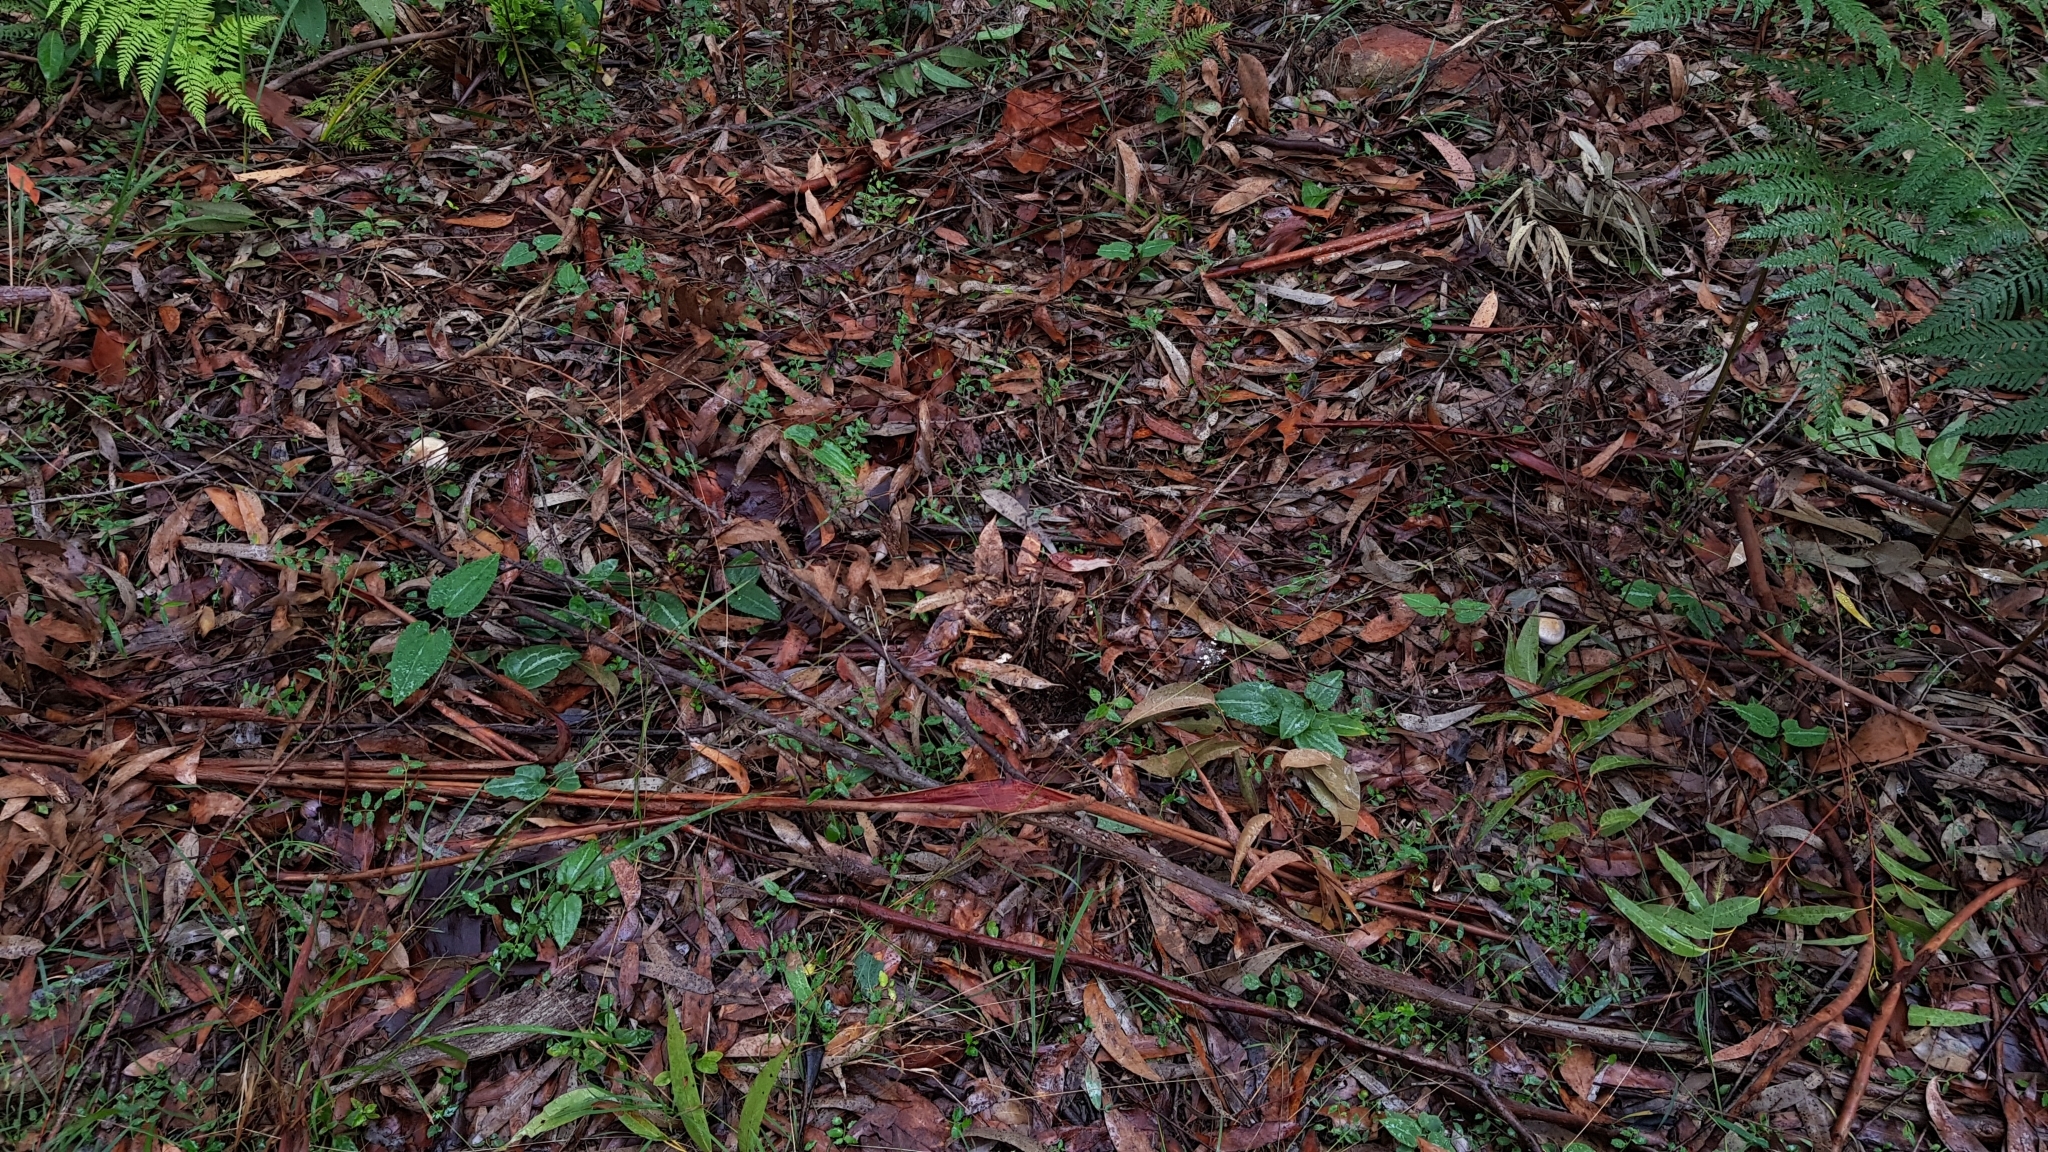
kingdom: Fungi
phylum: Basidiomycota
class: Agaricomycetes
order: Agaricales
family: Cortinariaceae
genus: Cortinarius
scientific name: Cortinarius rotundisporus
